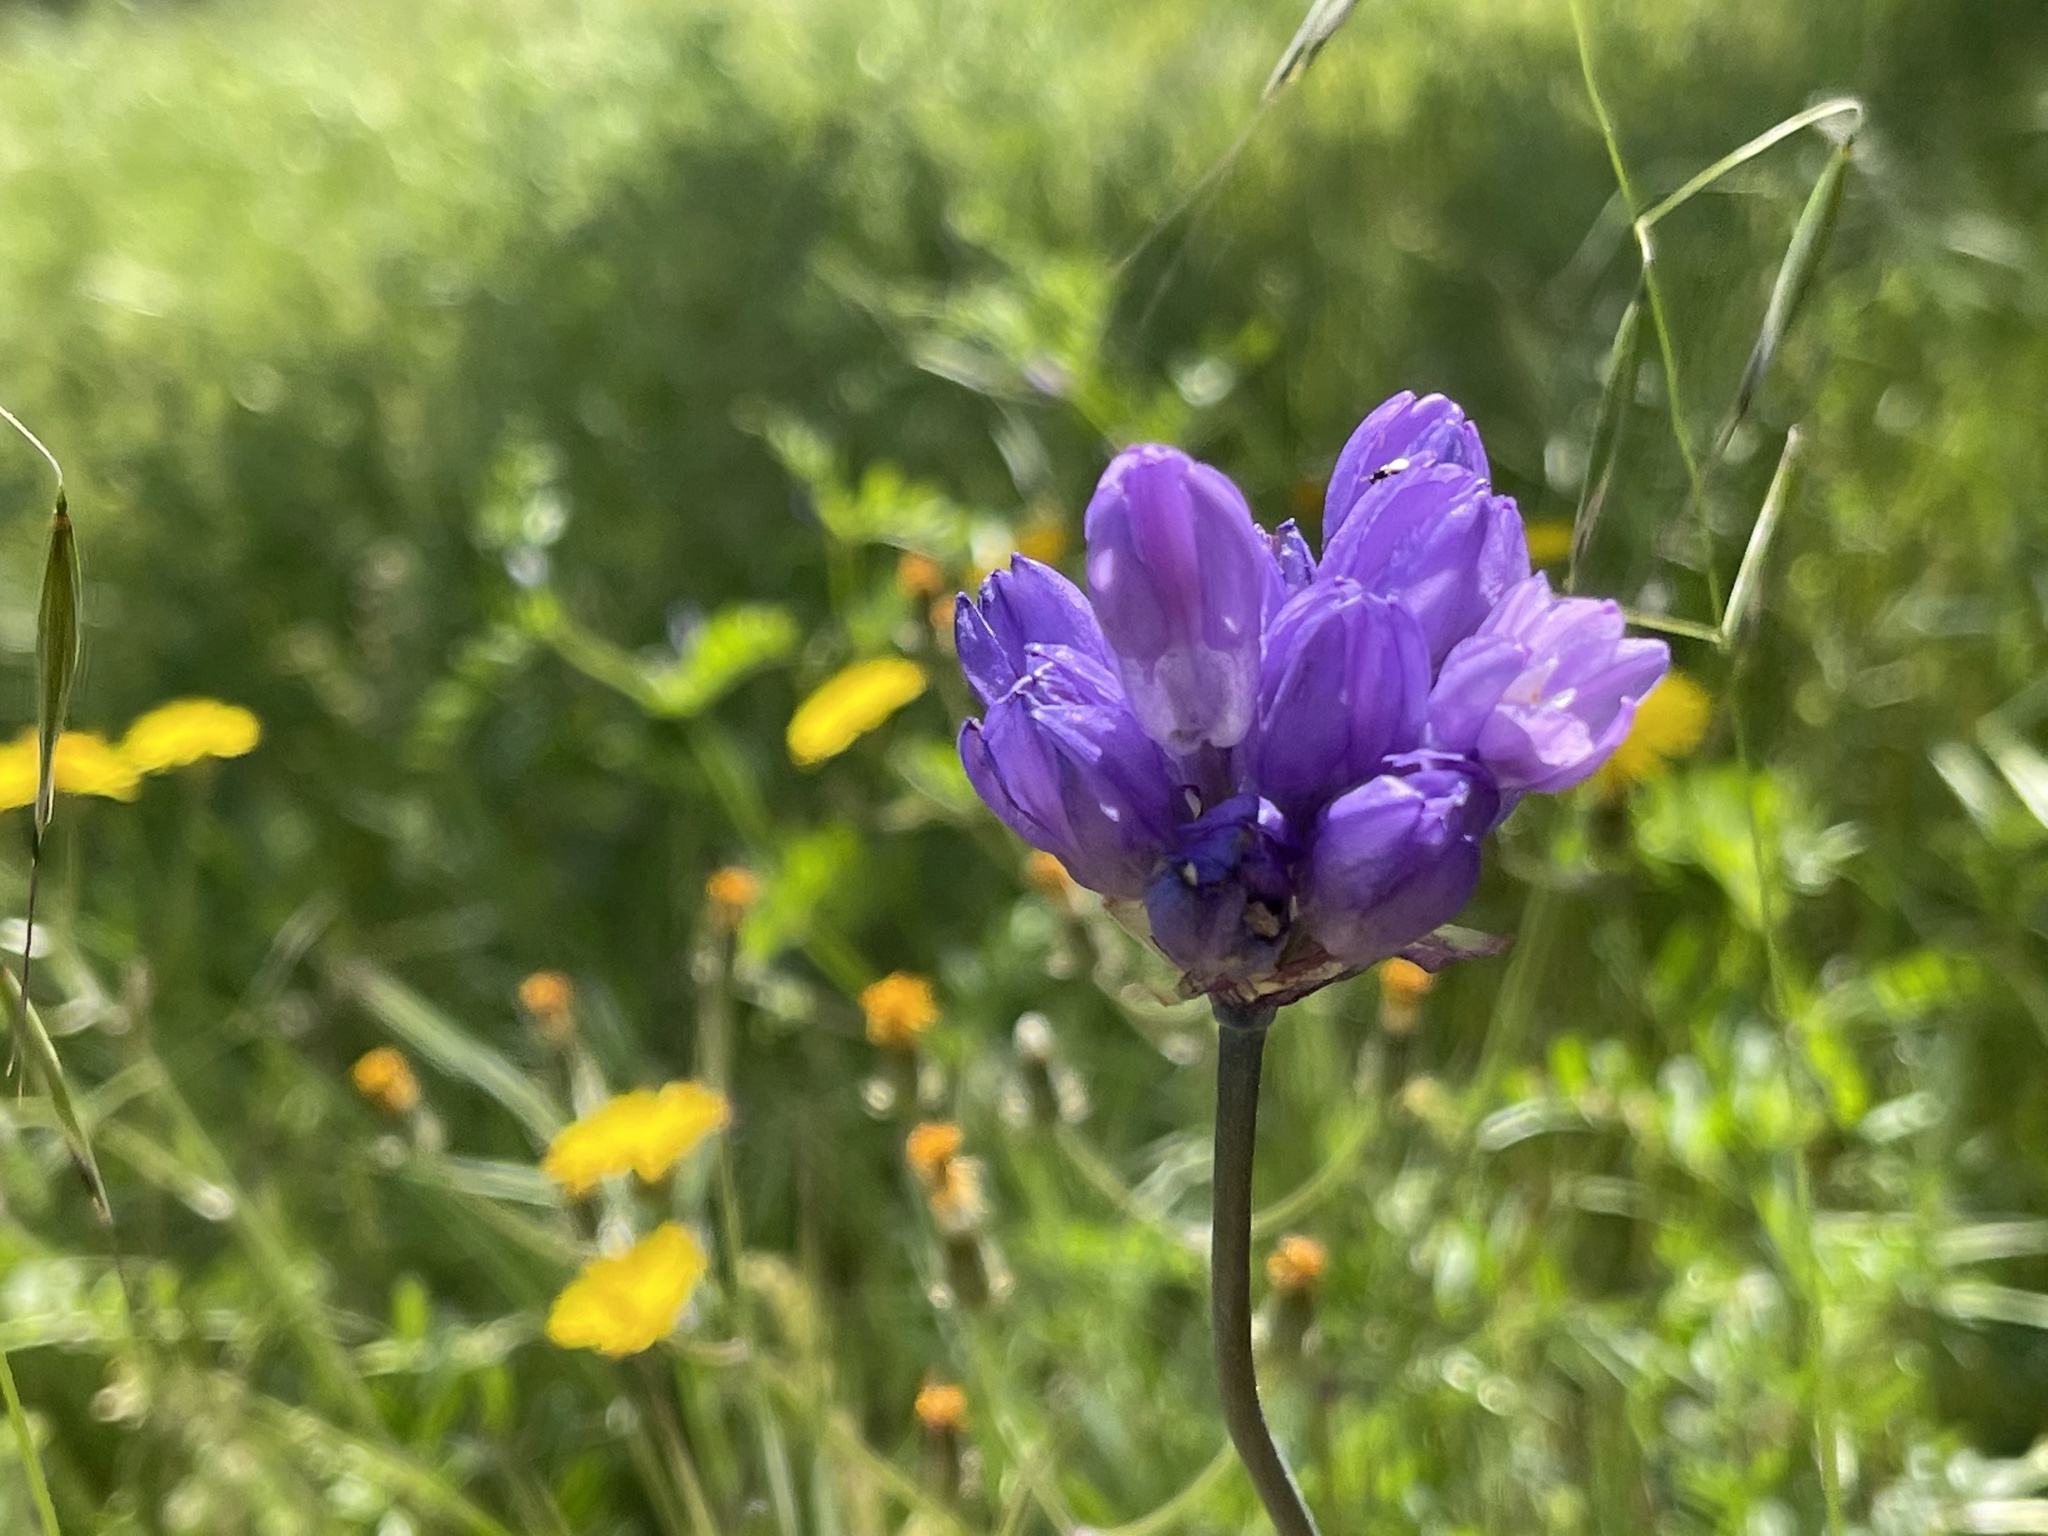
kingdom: Plantae
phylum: Tracheophyta
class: Liliopsida
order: Asparagales
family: Asparagaceae
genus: Dipterostemon
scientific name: Dipterostemon capitatus
